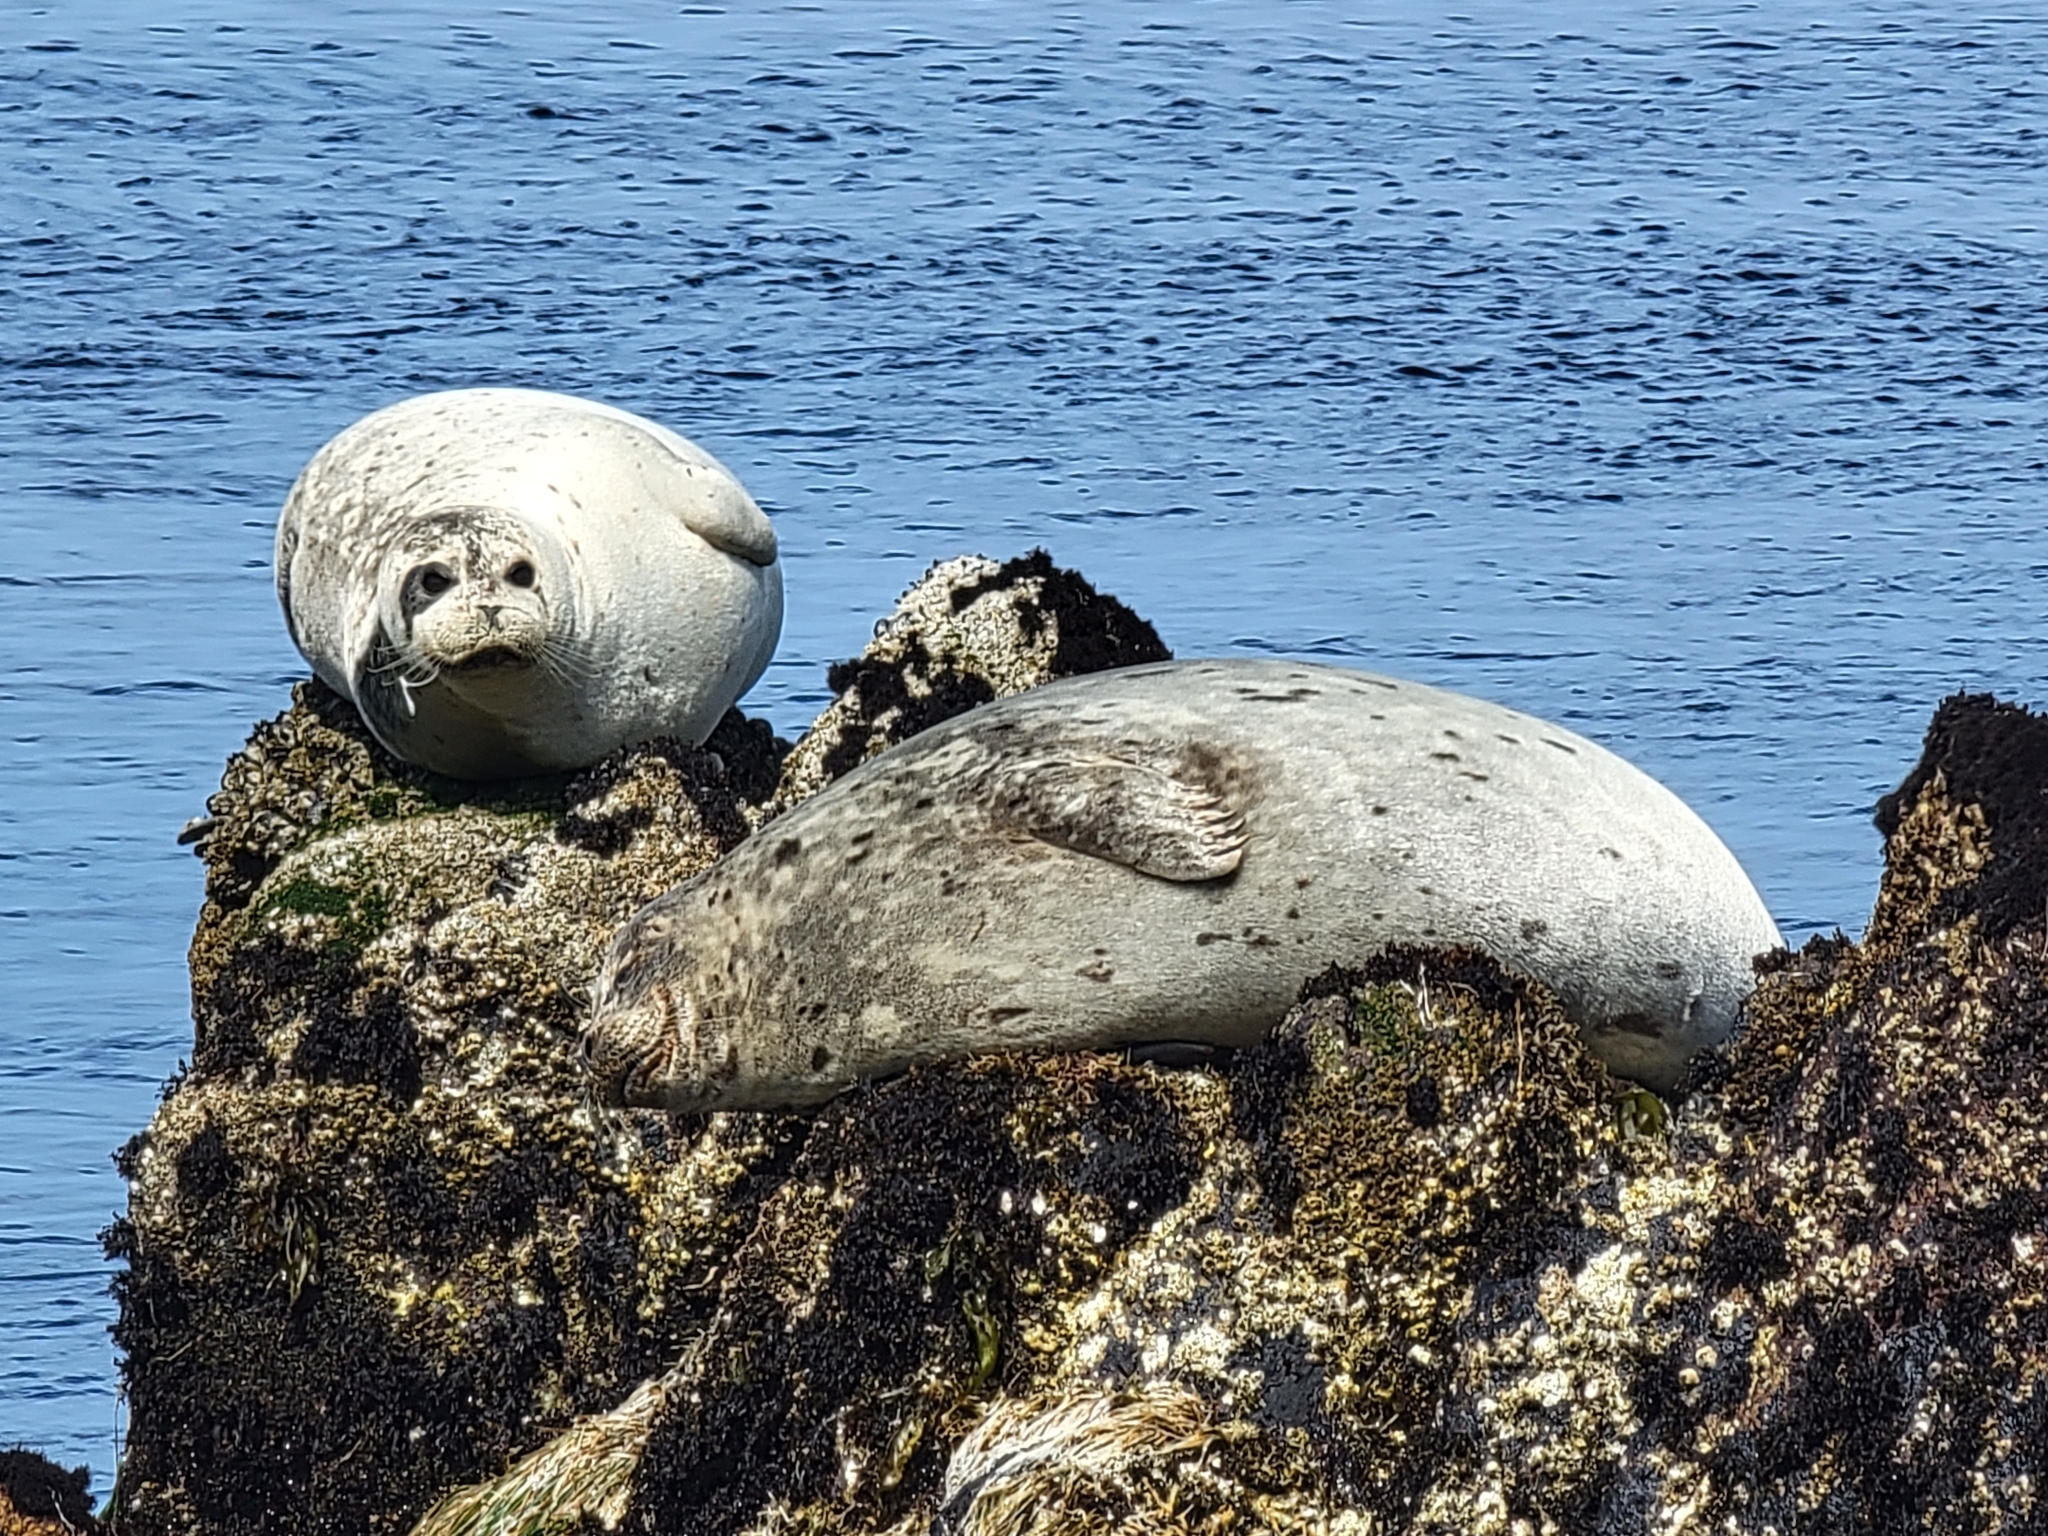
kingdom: Animalia
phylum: Chordata
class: Mammalia
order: Carnivora
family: Phocidae
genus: Phoca
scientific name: Phoca vitulina
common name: Harbor seal
